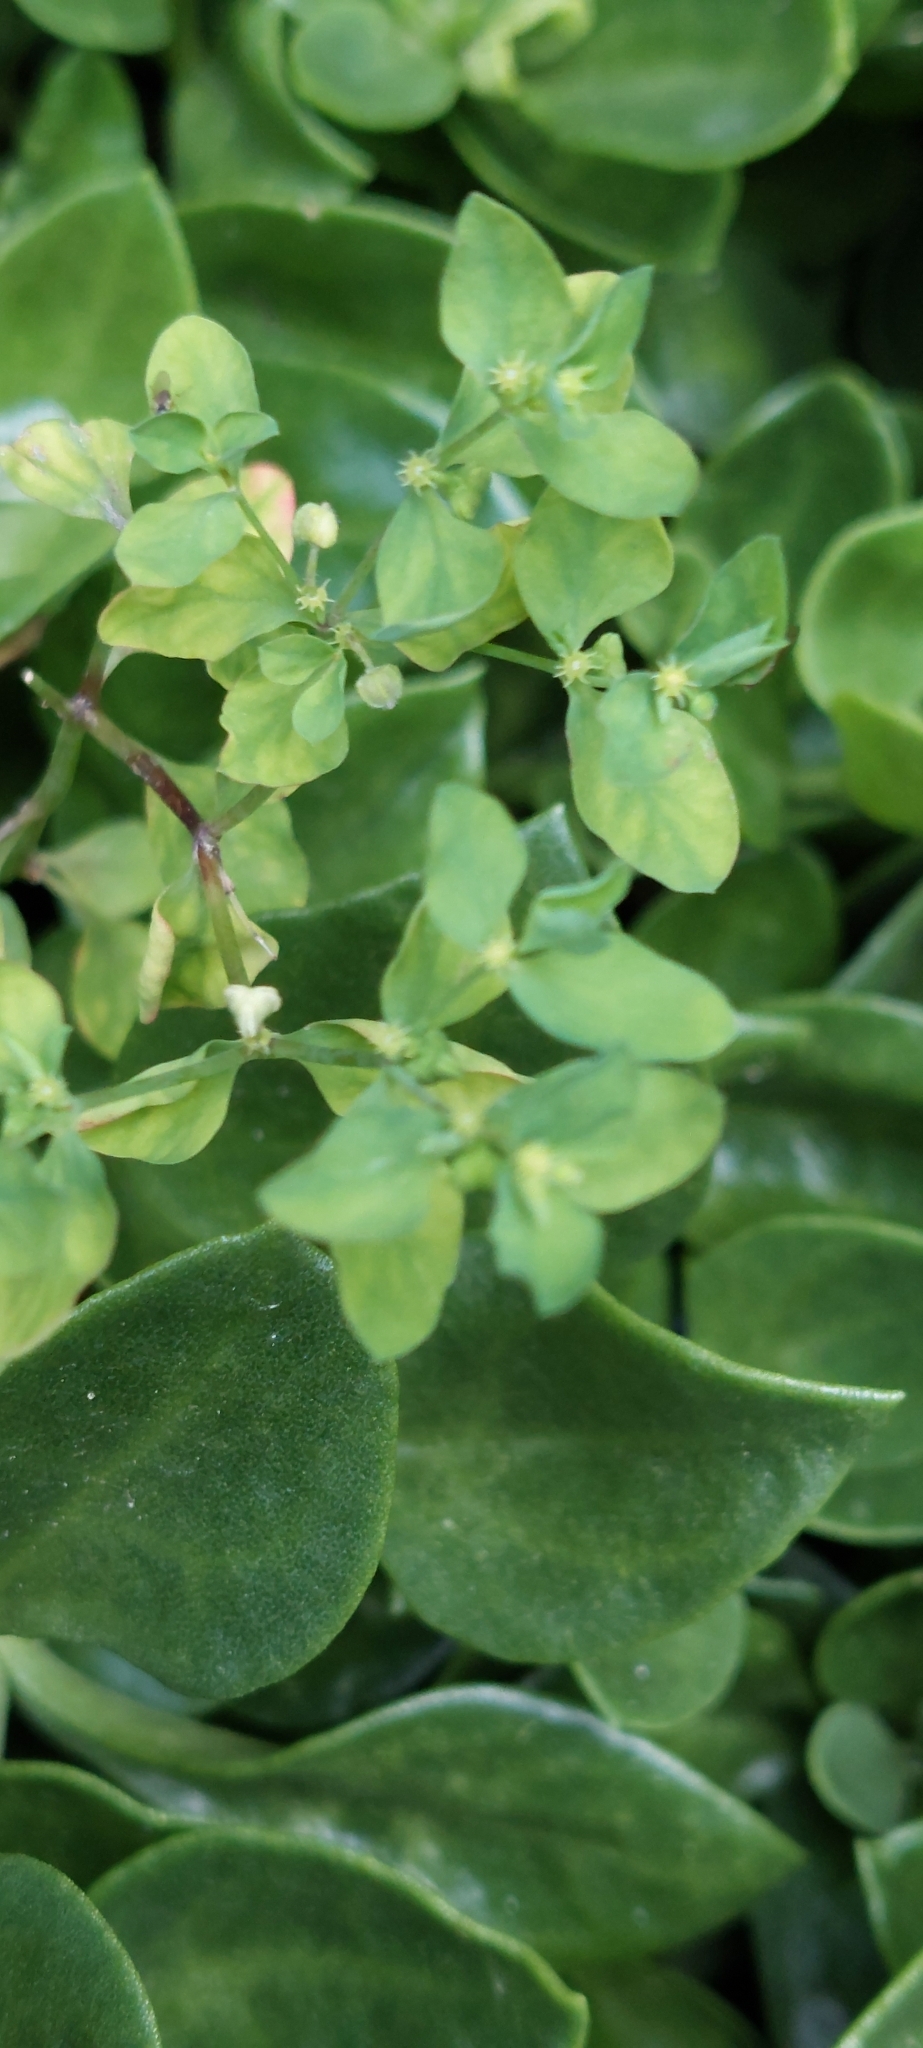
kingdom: Plantae
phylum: Tracheophyta
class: Magnoliopsida
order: Malpighiales
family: Euphorbiaceae
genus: Euphorbia
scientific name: Euphorbia peplus
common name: Petty spurge
